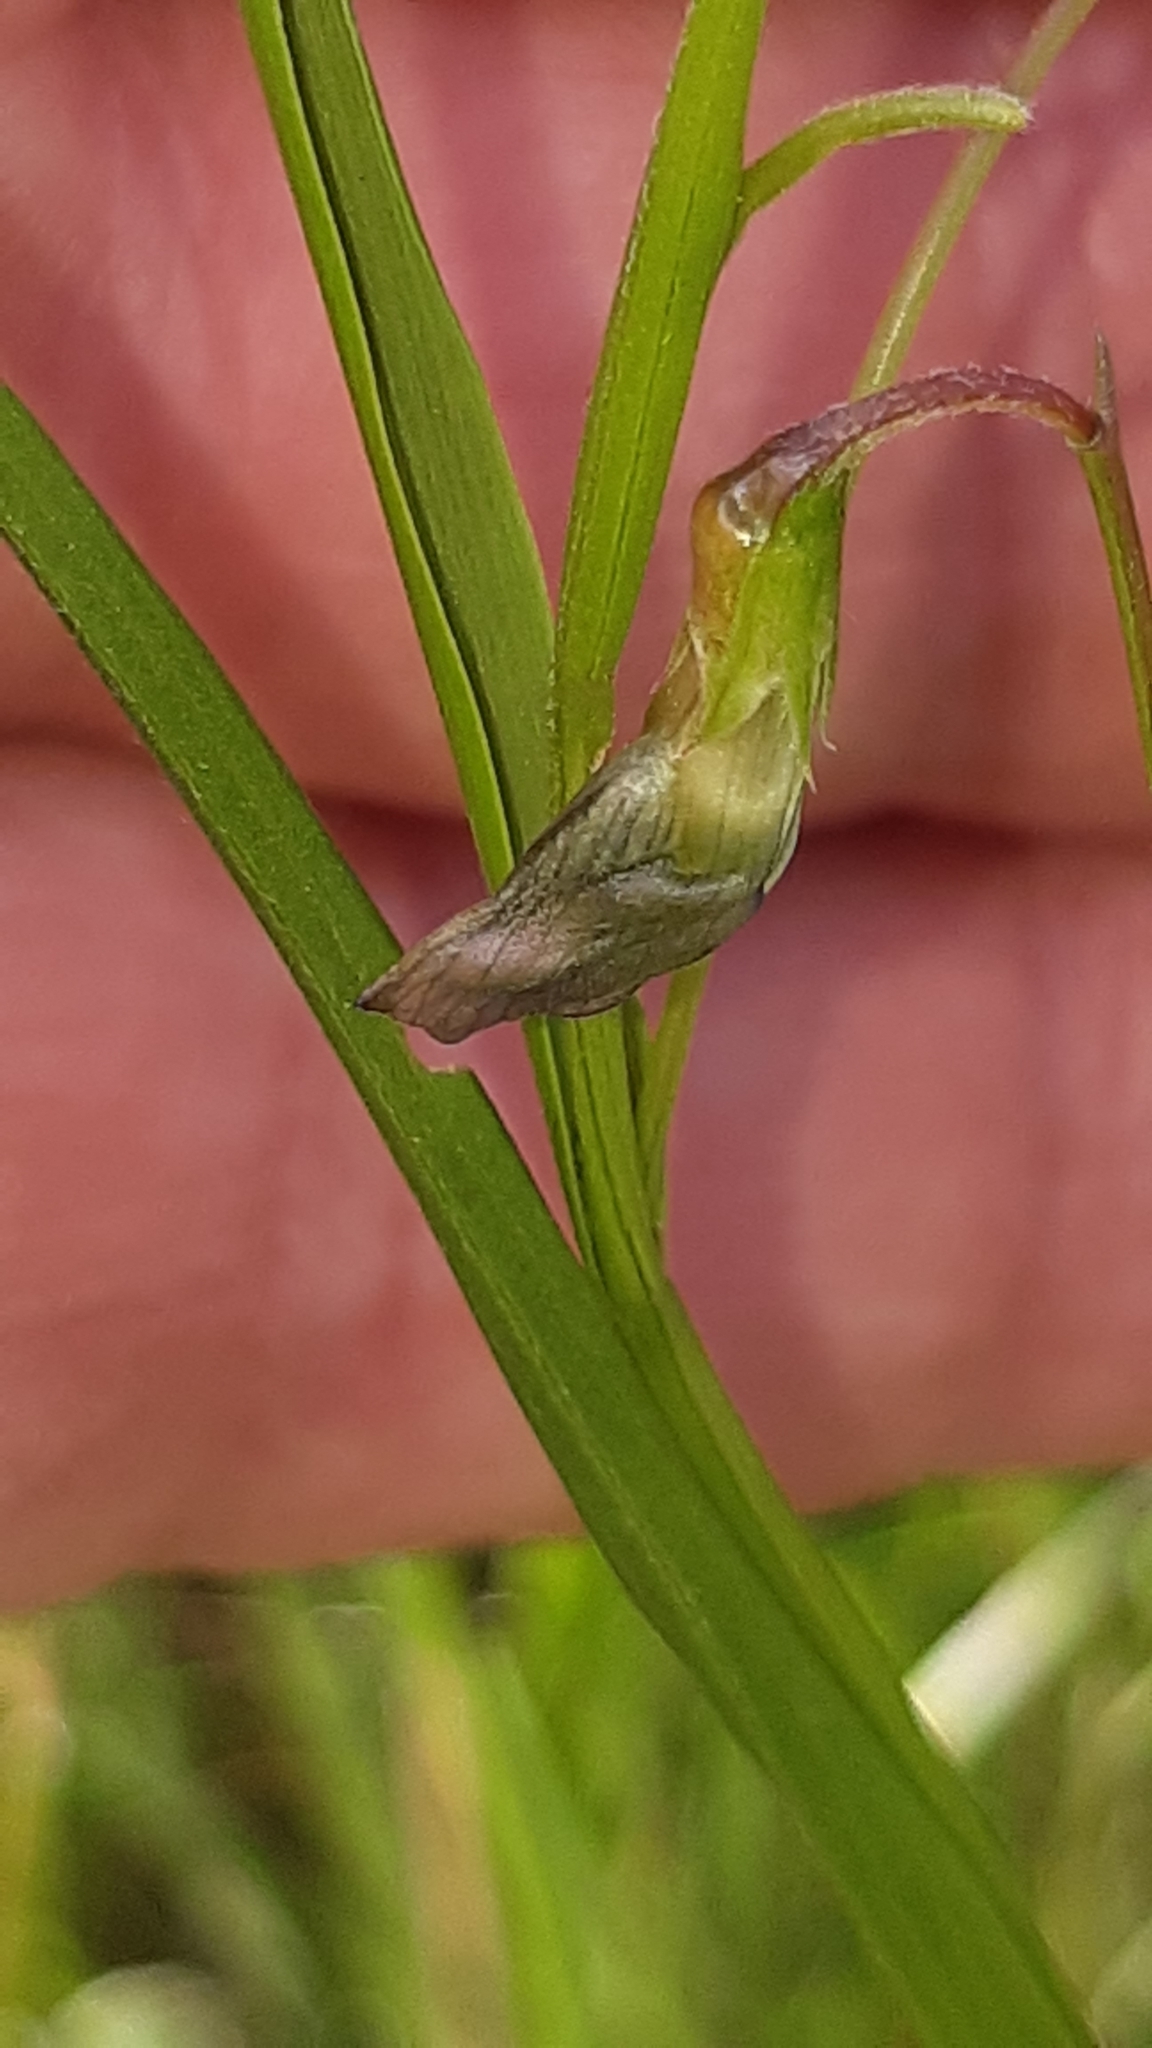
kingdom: Plantae
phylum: Tracheophyta
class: Magnoliopsida
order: Fabales
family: Fabaceae
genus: Lathyrus
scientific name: Lathyrus nissolia
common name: Grass vetchling
